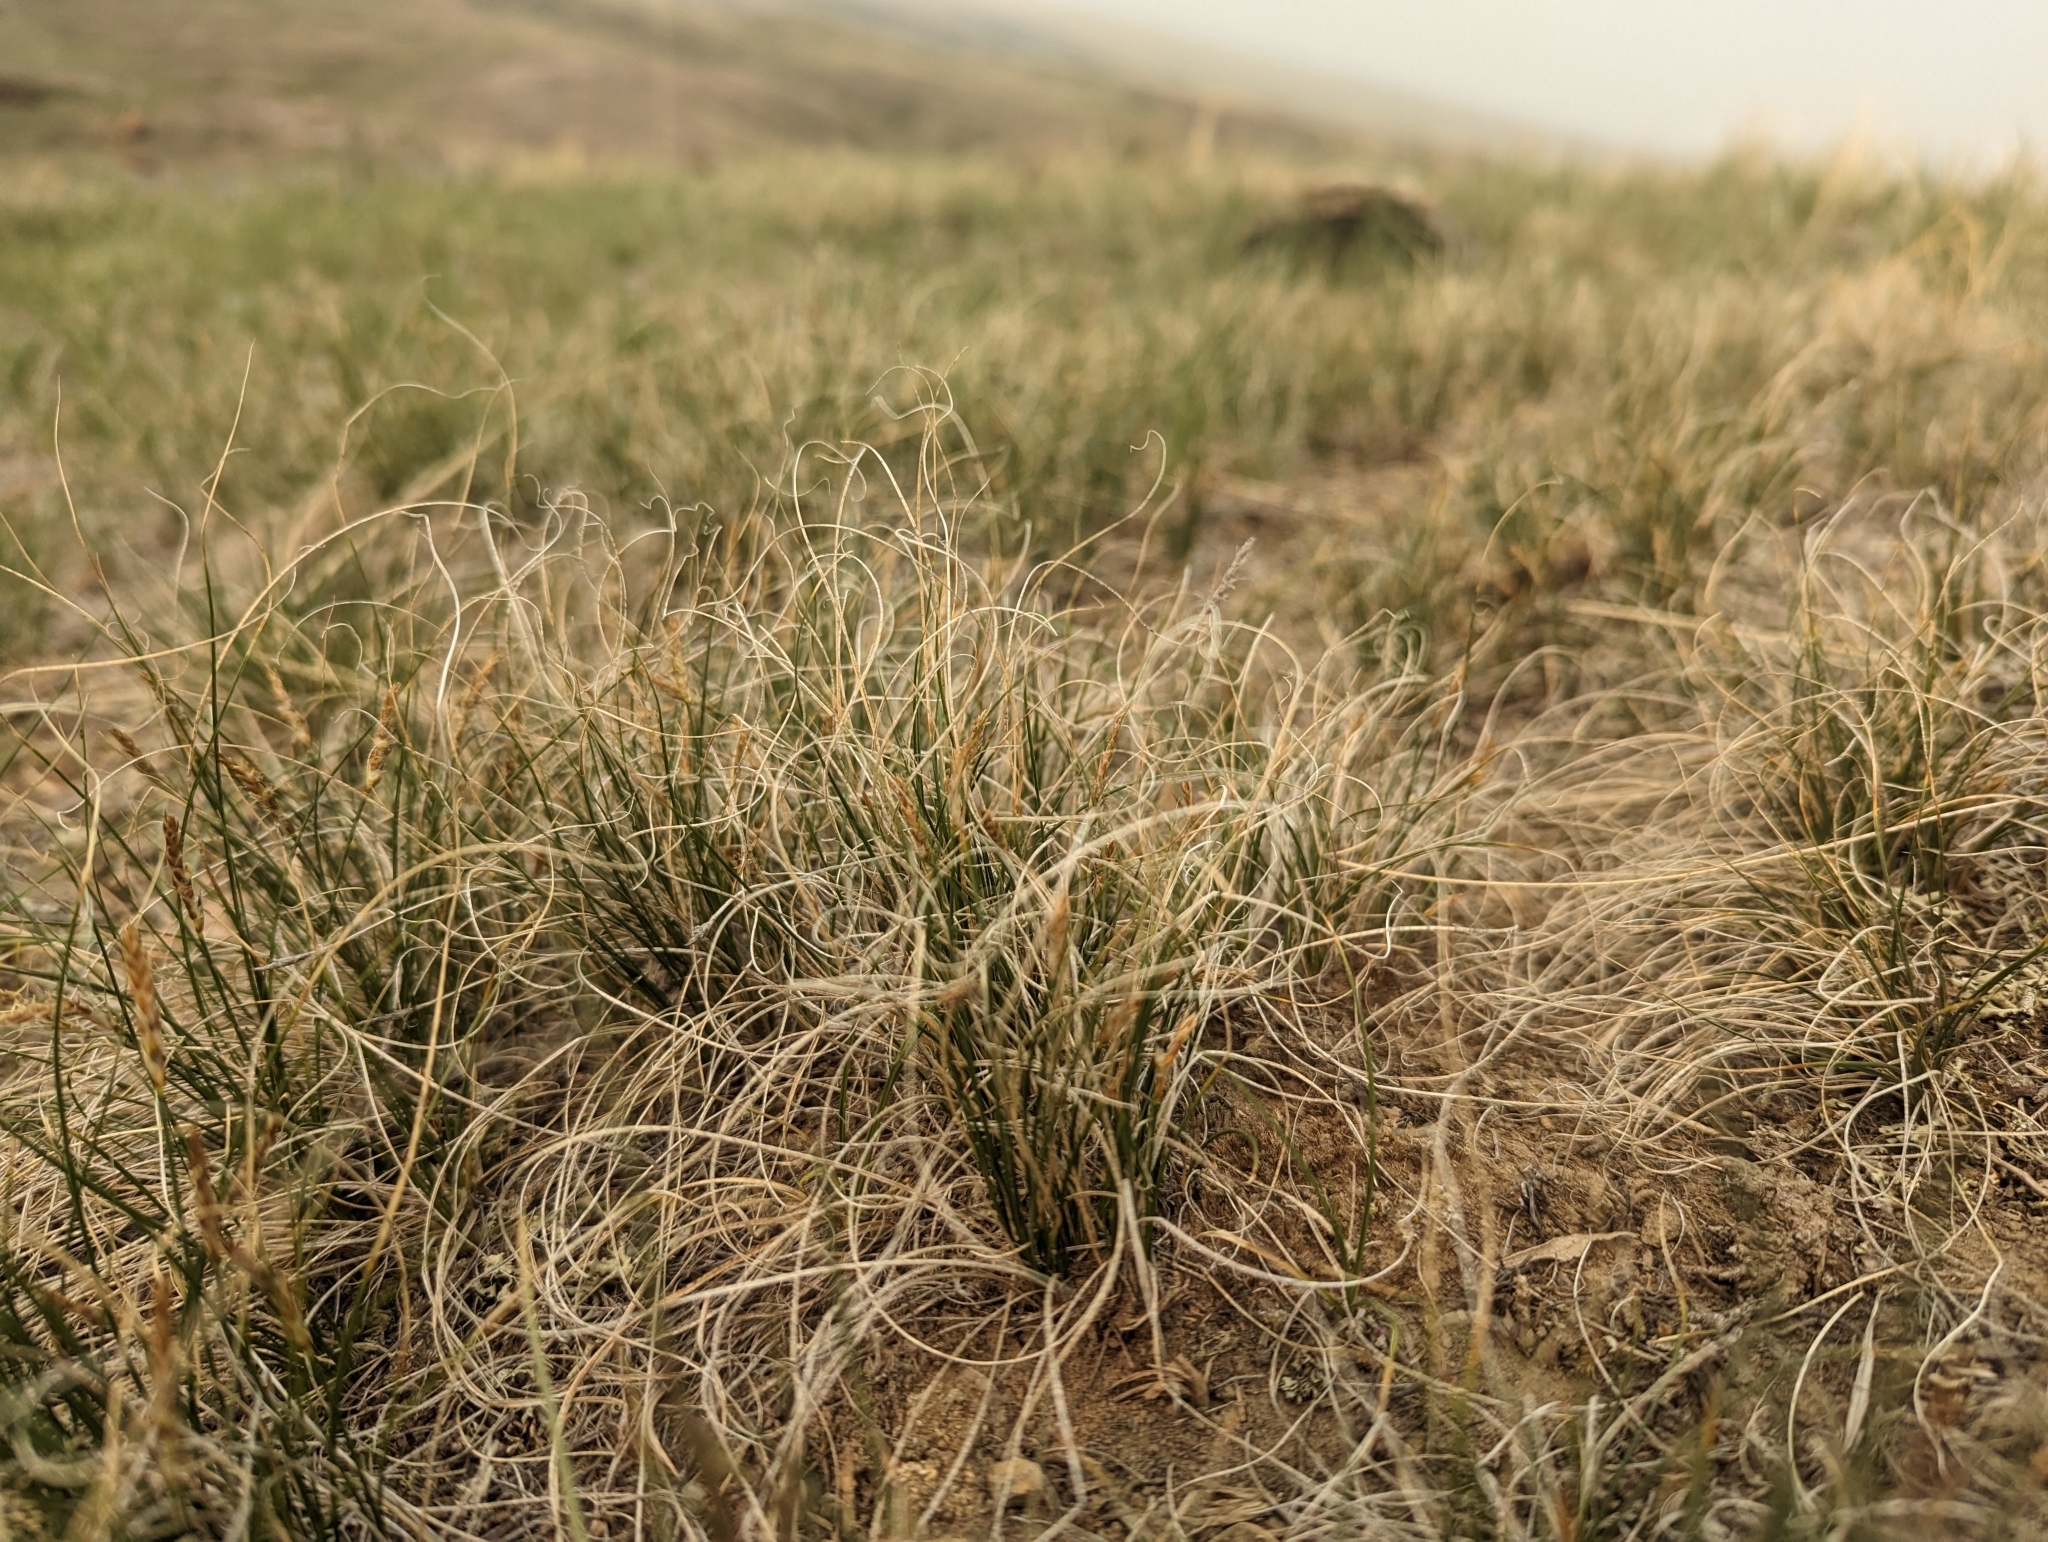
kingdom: Plantae
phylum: Tracheophyta
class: Liliopsida
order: Poales
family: Cyperaceae
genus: Carex
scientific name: Carex filifolia
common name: Threadleaf sedge
